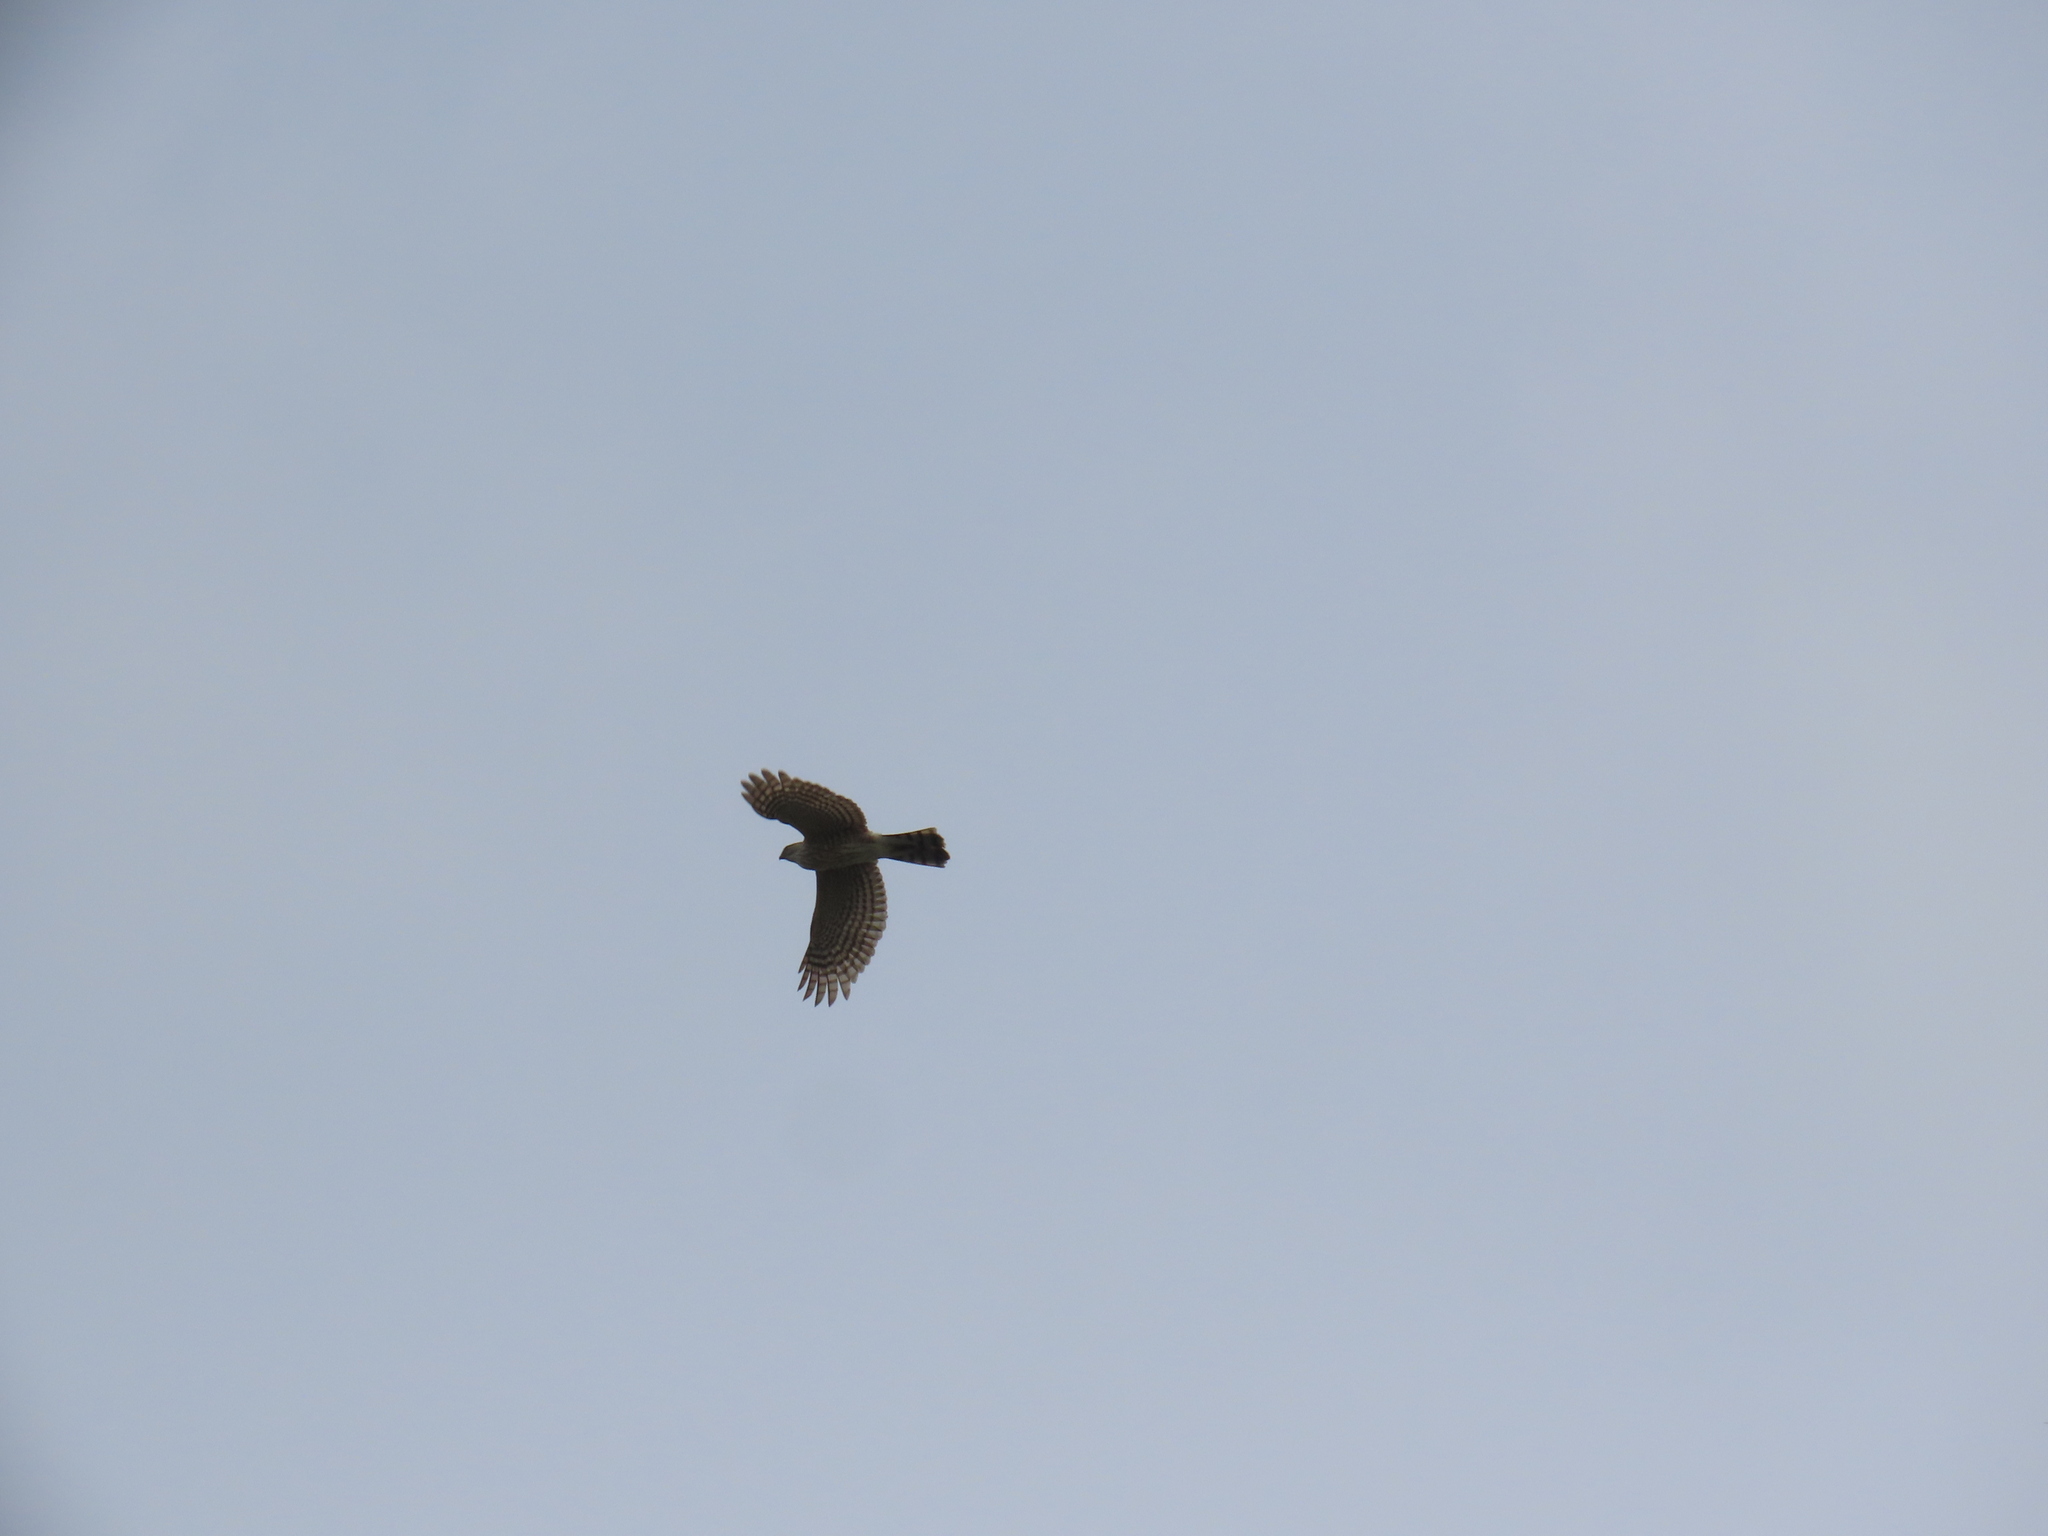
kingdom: Animalia
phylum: Chordata
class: Aves
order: Accipitriformes
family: Accipitridae
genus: Accipiter
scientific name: Accipiter striatus
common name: Sharp-shinned hawk
